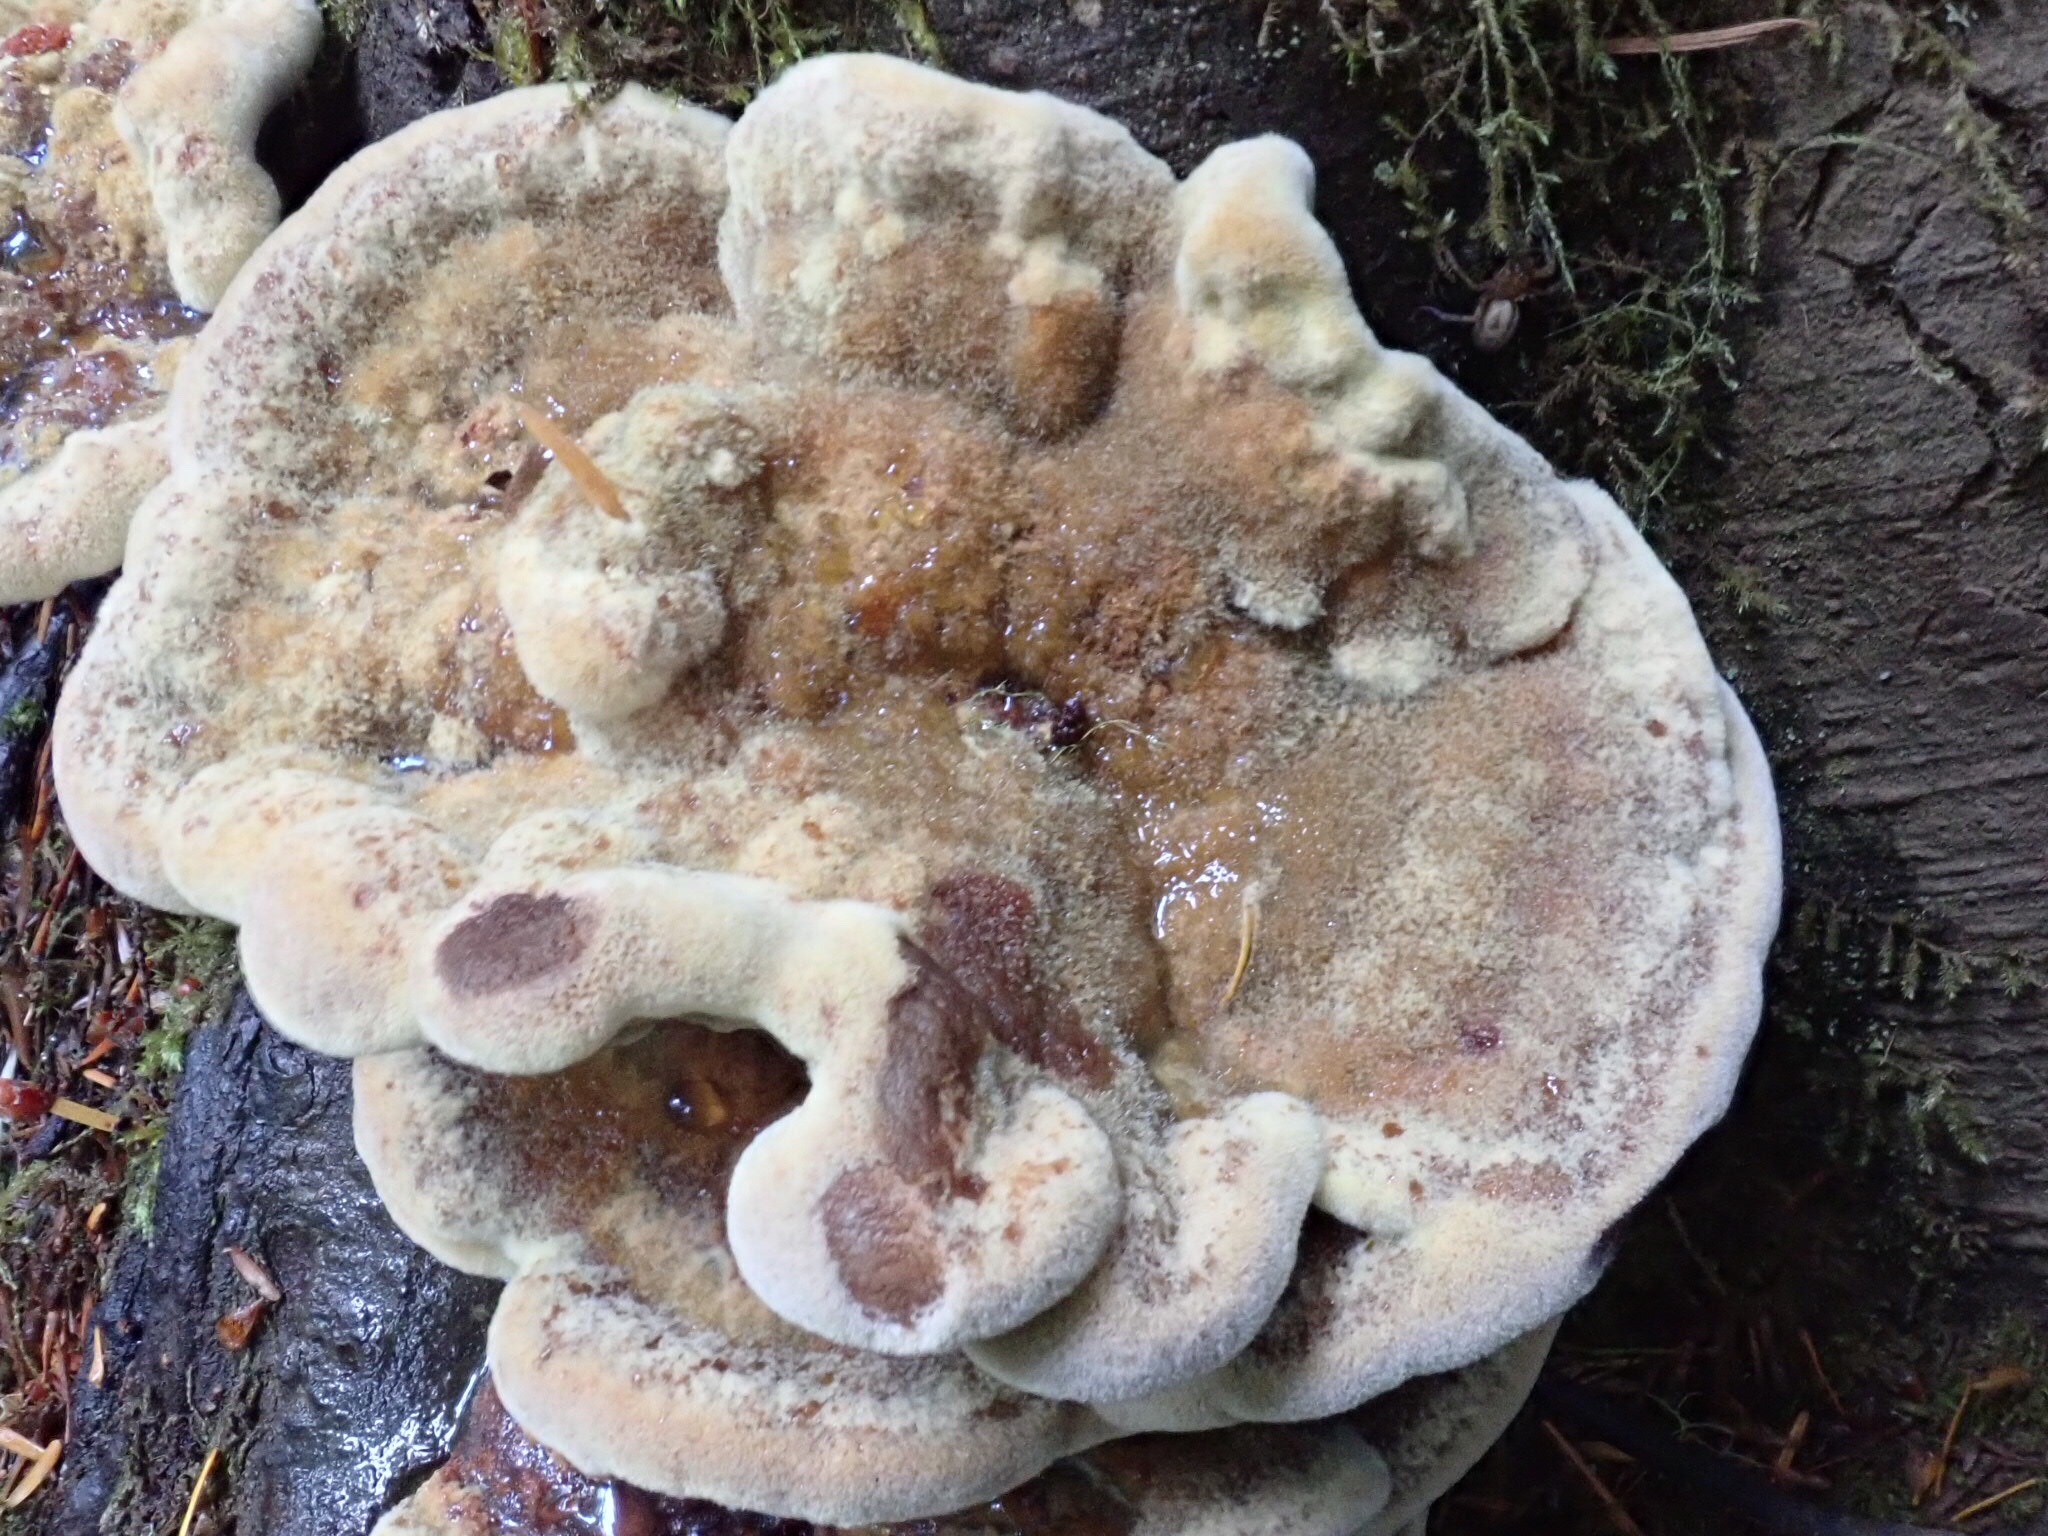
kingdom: Fungi
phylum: Basidiomycota
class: Agaricomycetes
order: Polyporales
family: Laetiporaceae
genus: Phaeolus
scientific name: Phaeolus schweinitzii
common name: Dyer's mazegill
